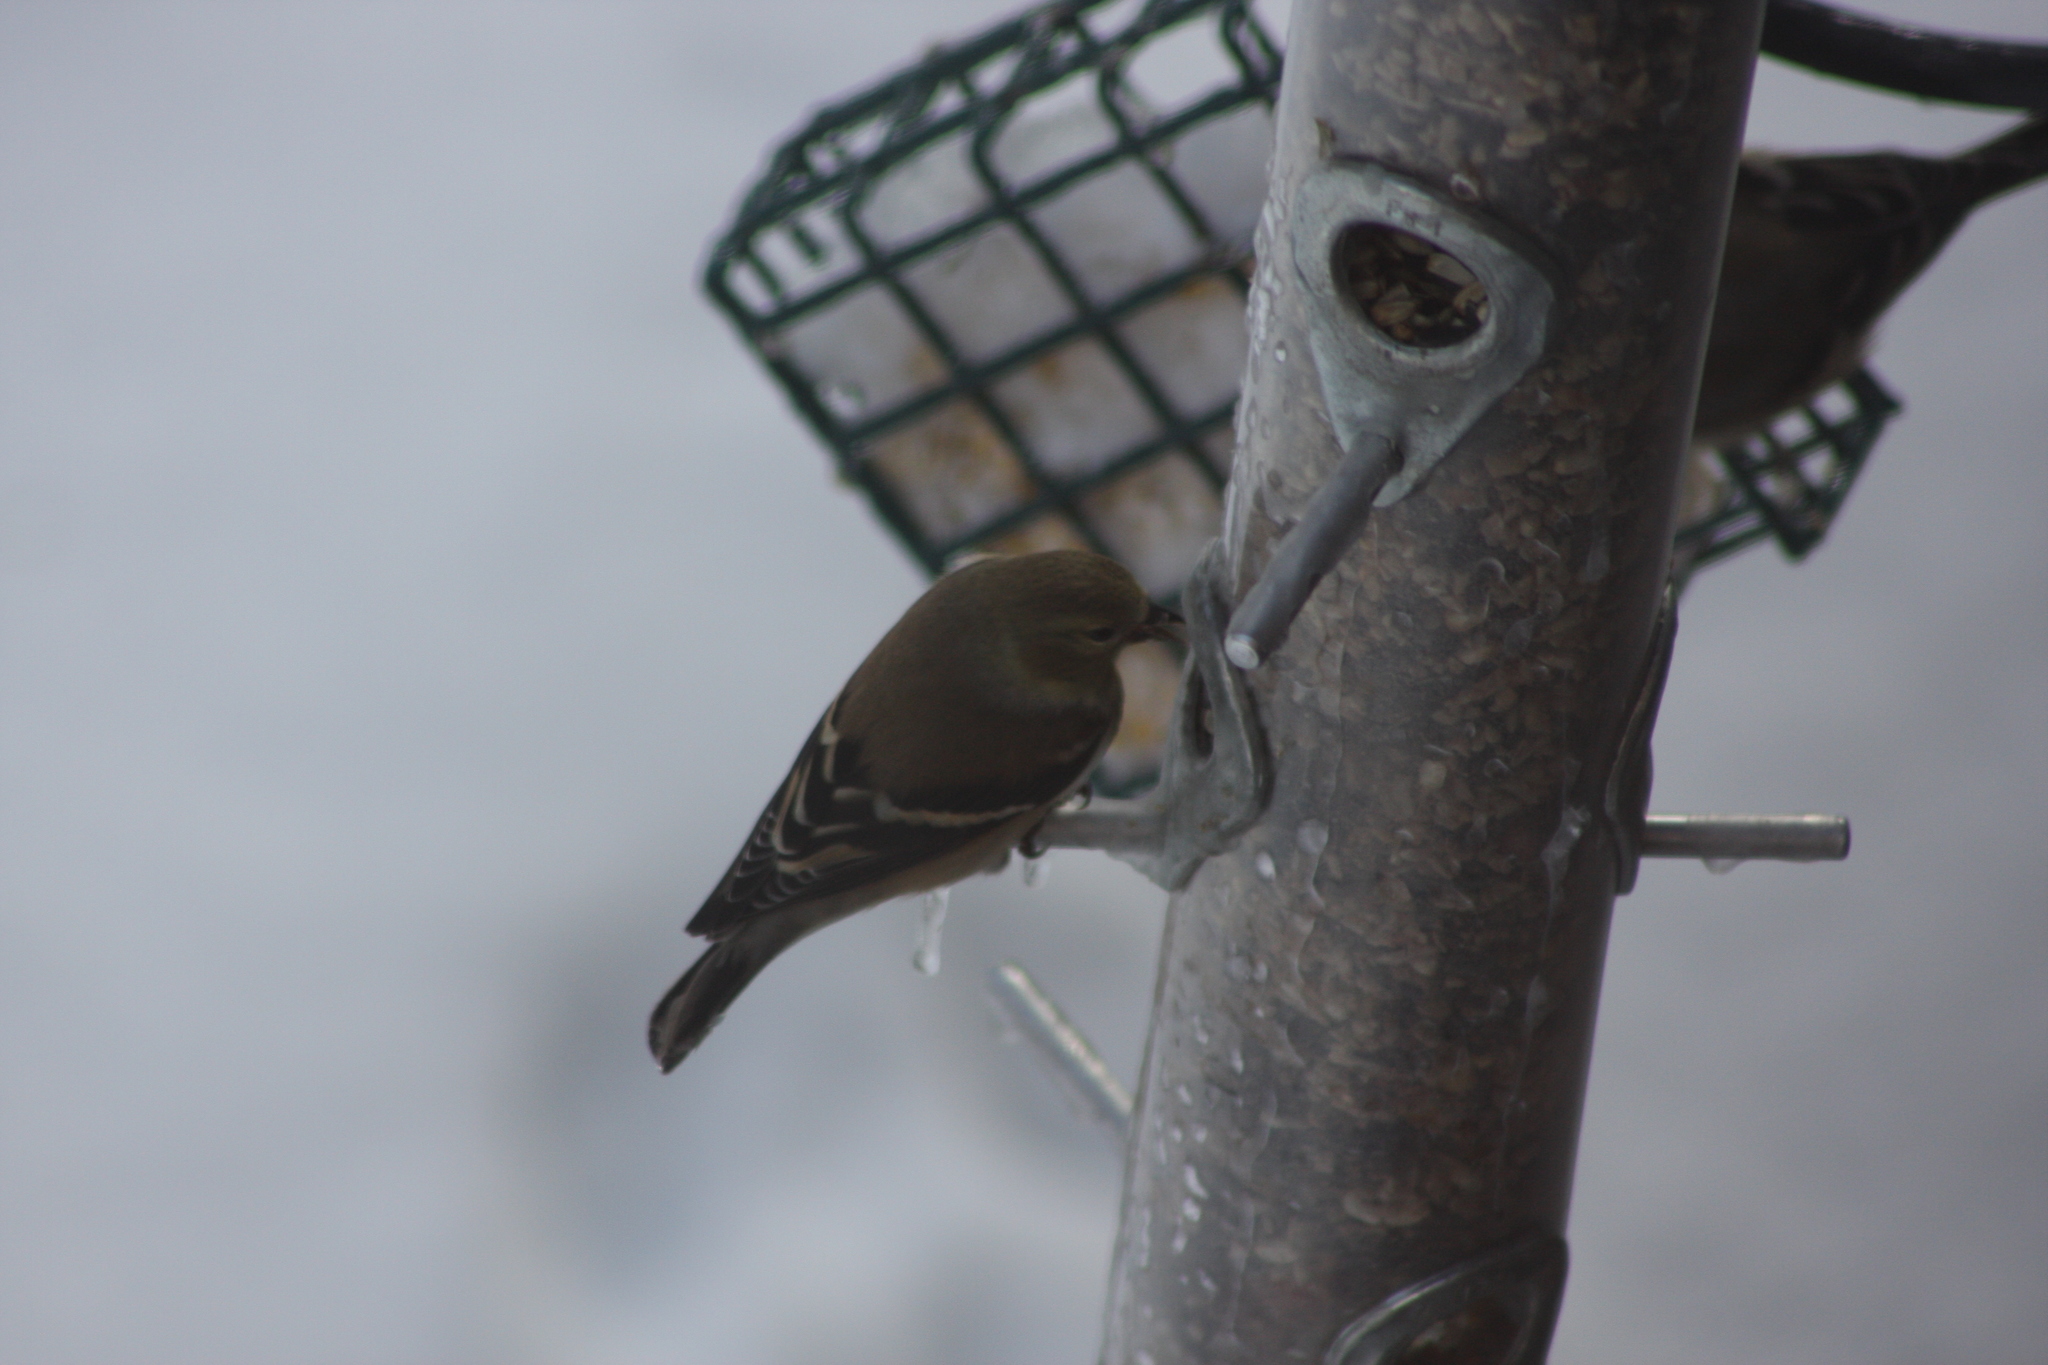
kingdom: Animalia
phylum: Chordata
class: Aves
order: Passeriformes
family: Fringillidae
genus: Spinus
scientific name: Spinus tristis
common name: American goldfinch
